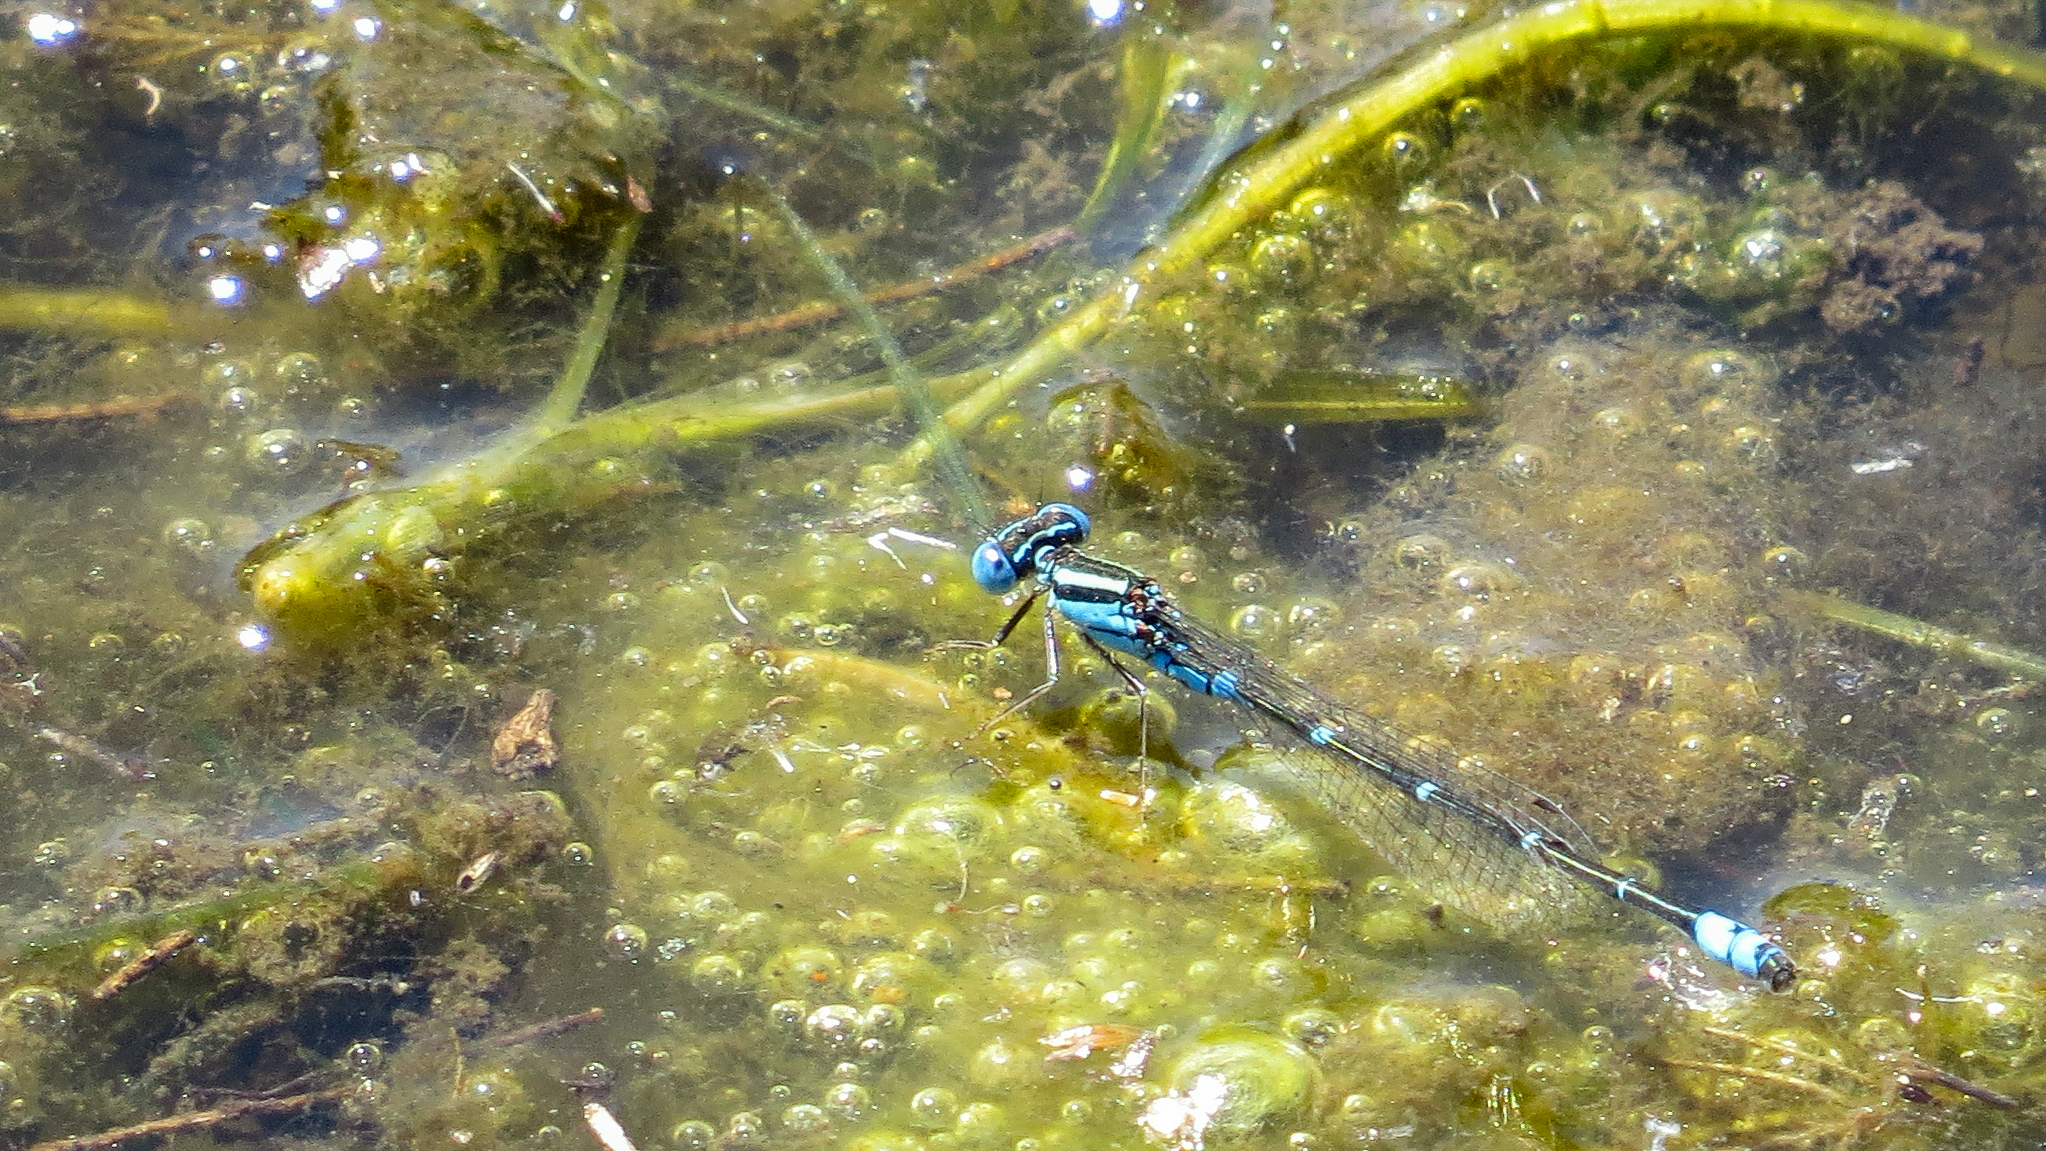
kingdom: Animalia
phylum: Arthropoda
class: Insecta
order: Odonata
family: Coenagrionidae
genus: Austroagrion
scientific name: Austroagrion watsoni
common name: Eastern billabongfly
